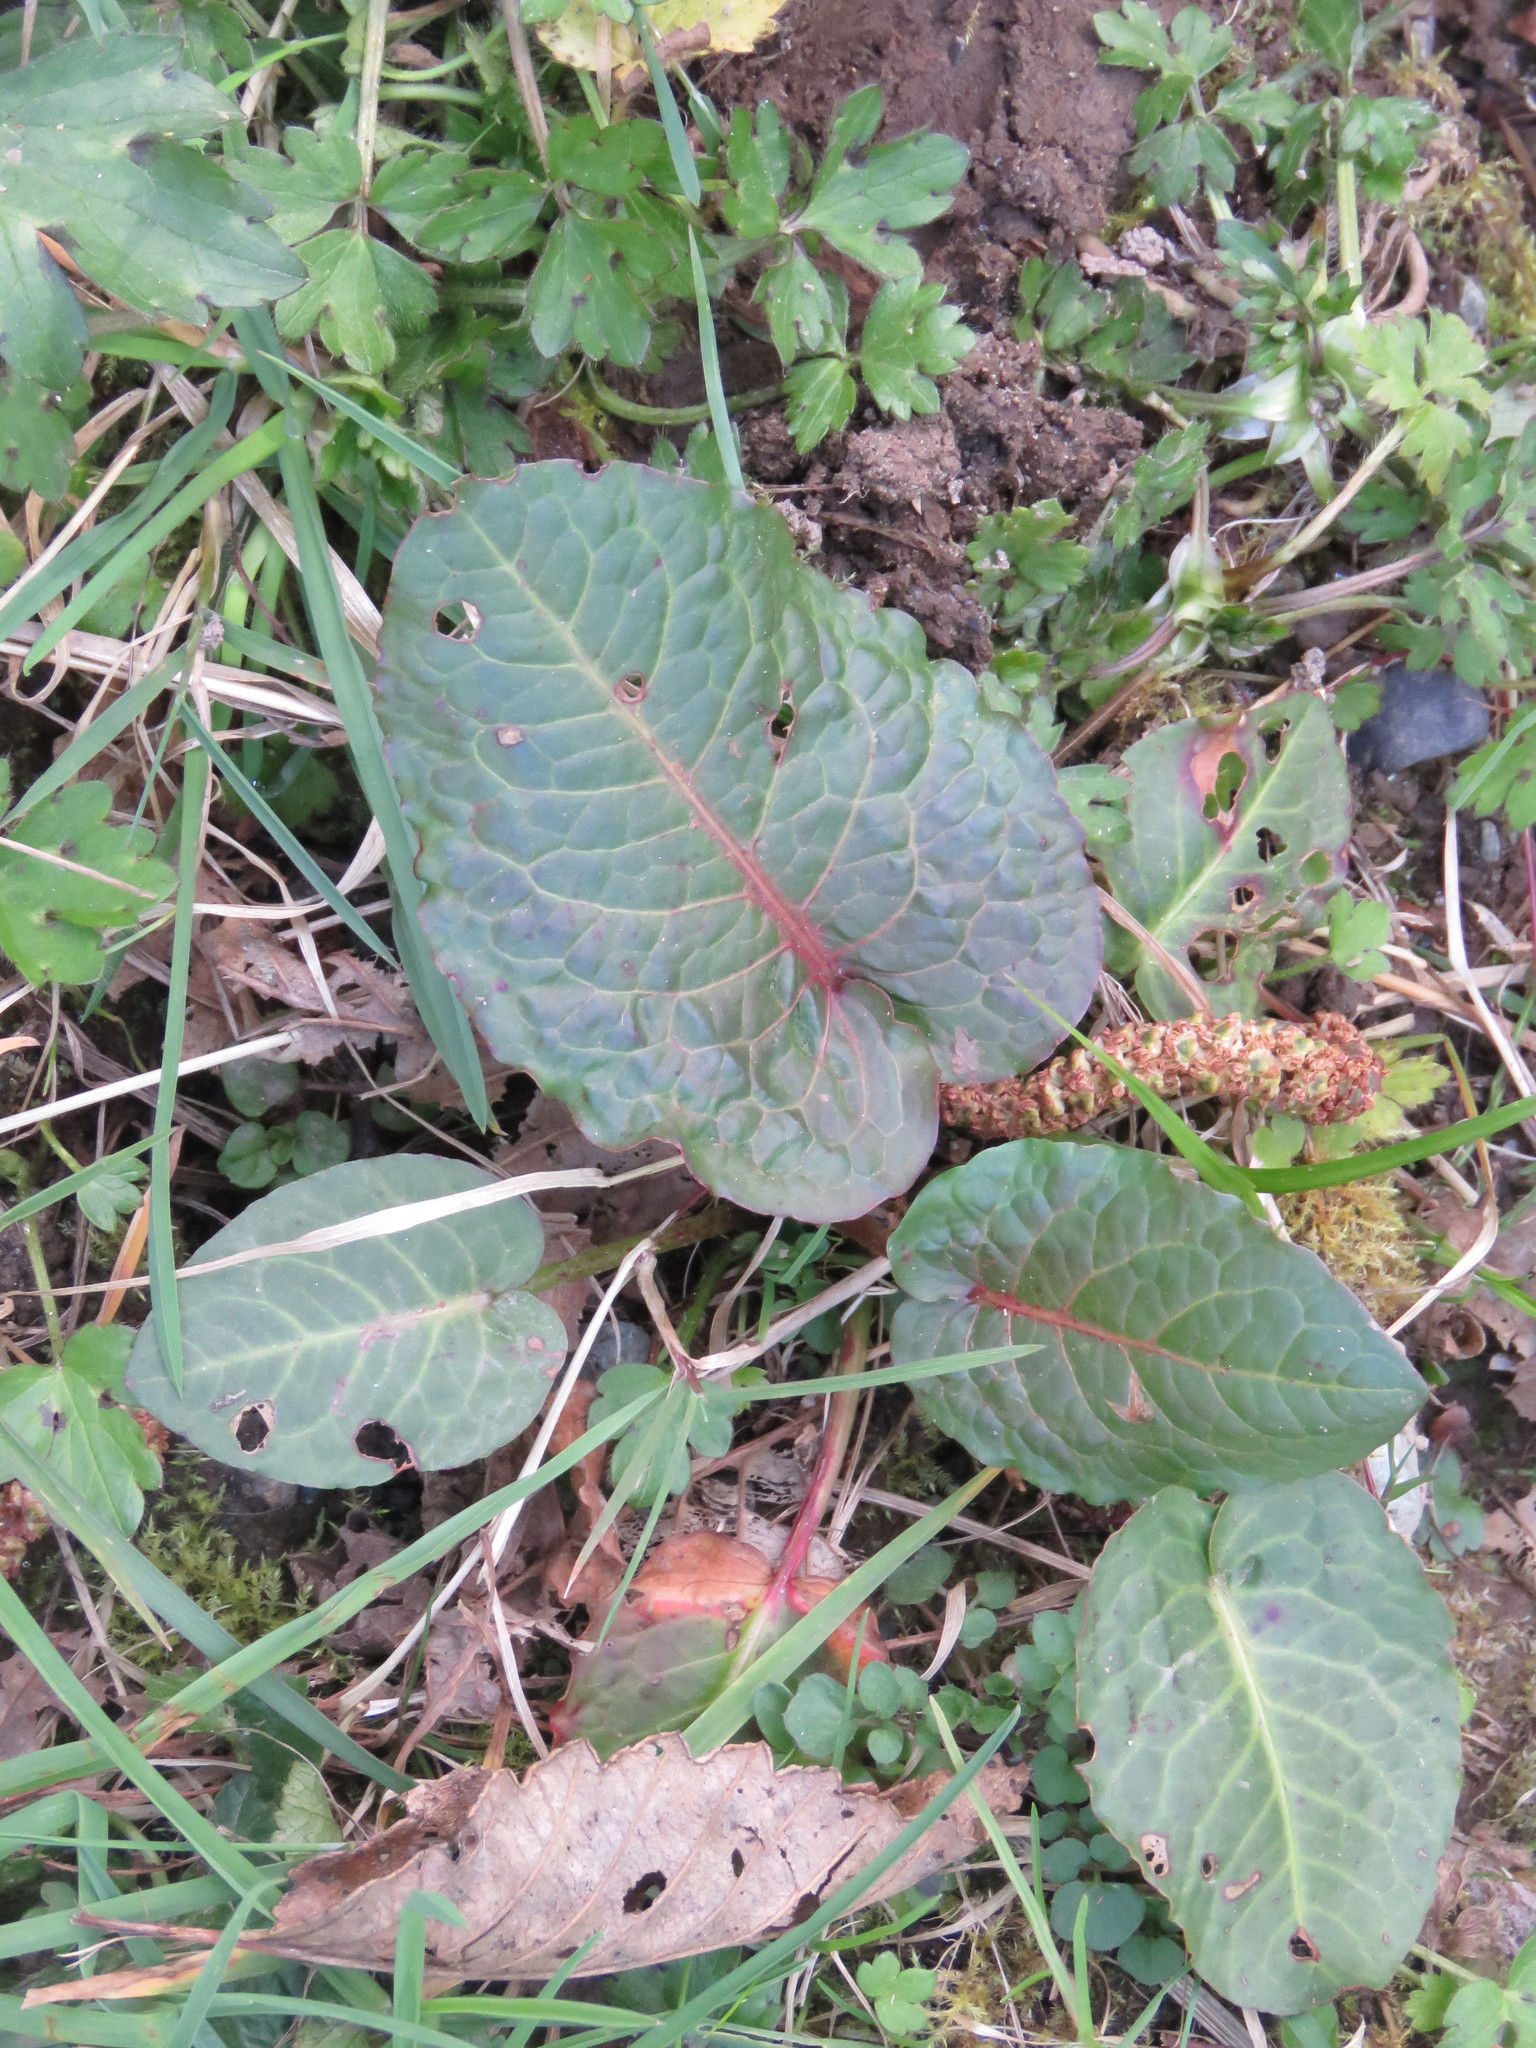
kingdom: Plantae
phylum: Tracheophyta
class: Magnoliopsida
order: Caryophyllales
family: Polygonaceae
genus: Rumex
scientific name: Rumex obtusifolius
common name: Bitter dock
